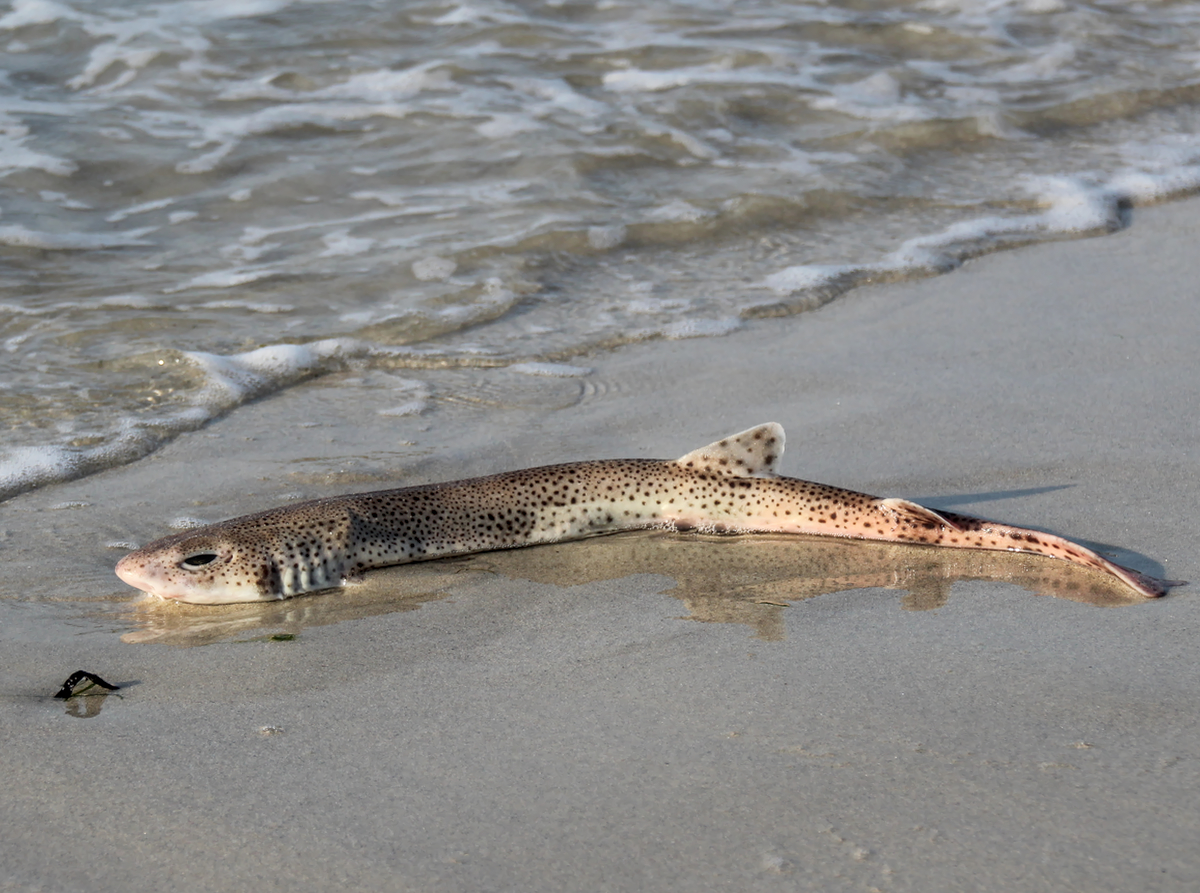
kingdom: Animalia
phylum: Chordata
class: Elasmobranchii
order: Carcharhiniformes
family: Scyliorhinidae
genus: Scyliorhinus
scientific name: Scyliorhinus canicula
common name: Lesser spotted dogfish
